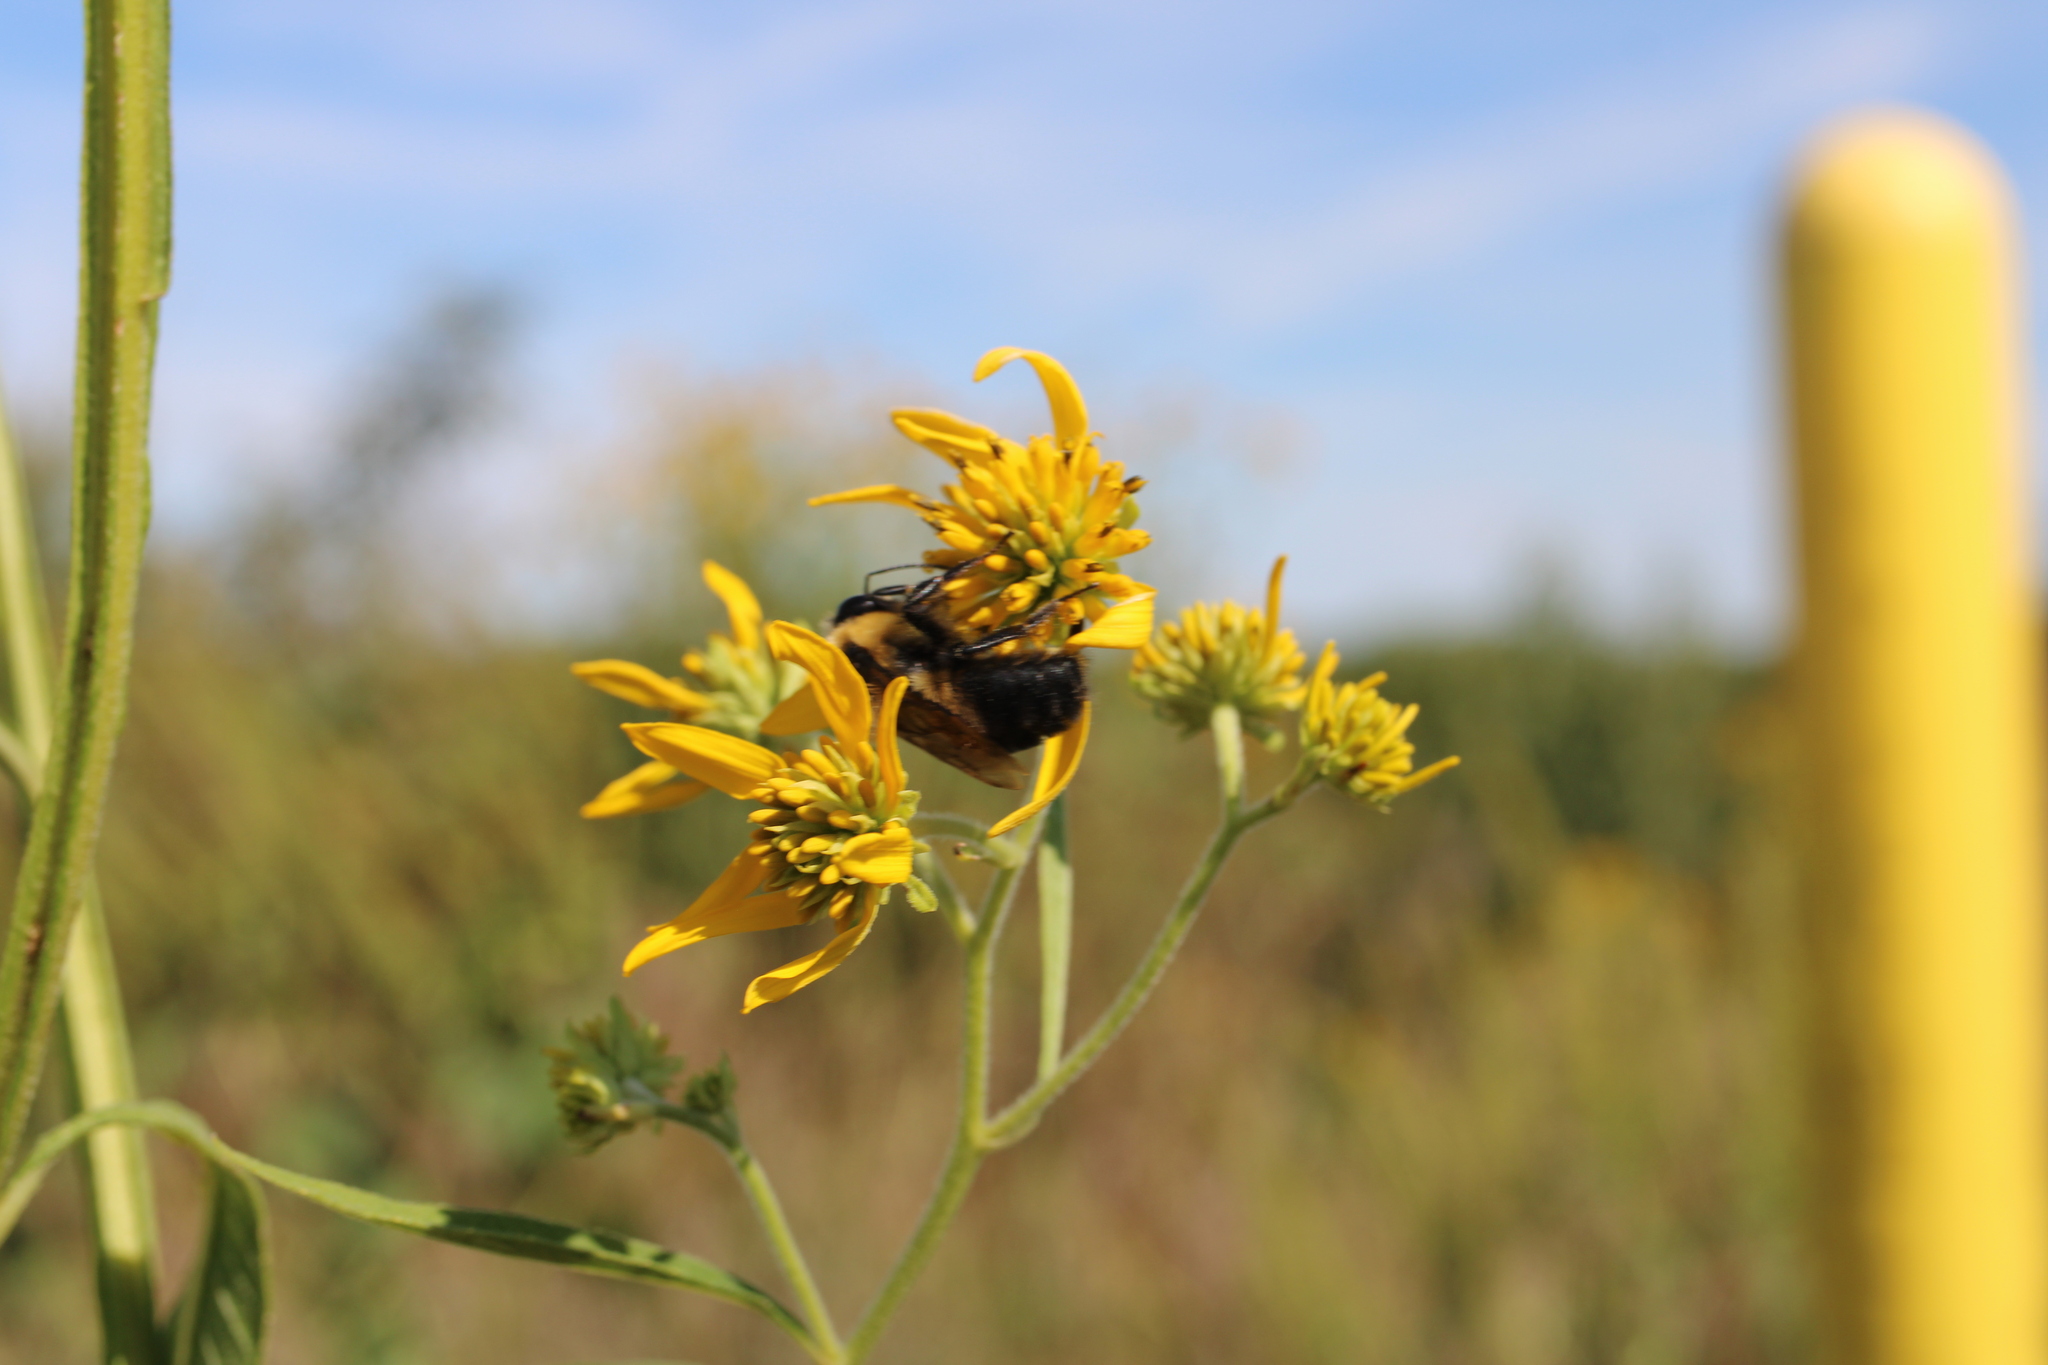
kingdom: Animalia
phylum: Arthropoda
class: Insecta
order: Hymenoptera
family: Apidae
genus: Bombus
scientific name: Bombus griseocollis
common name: Brown-belted bumble bee
